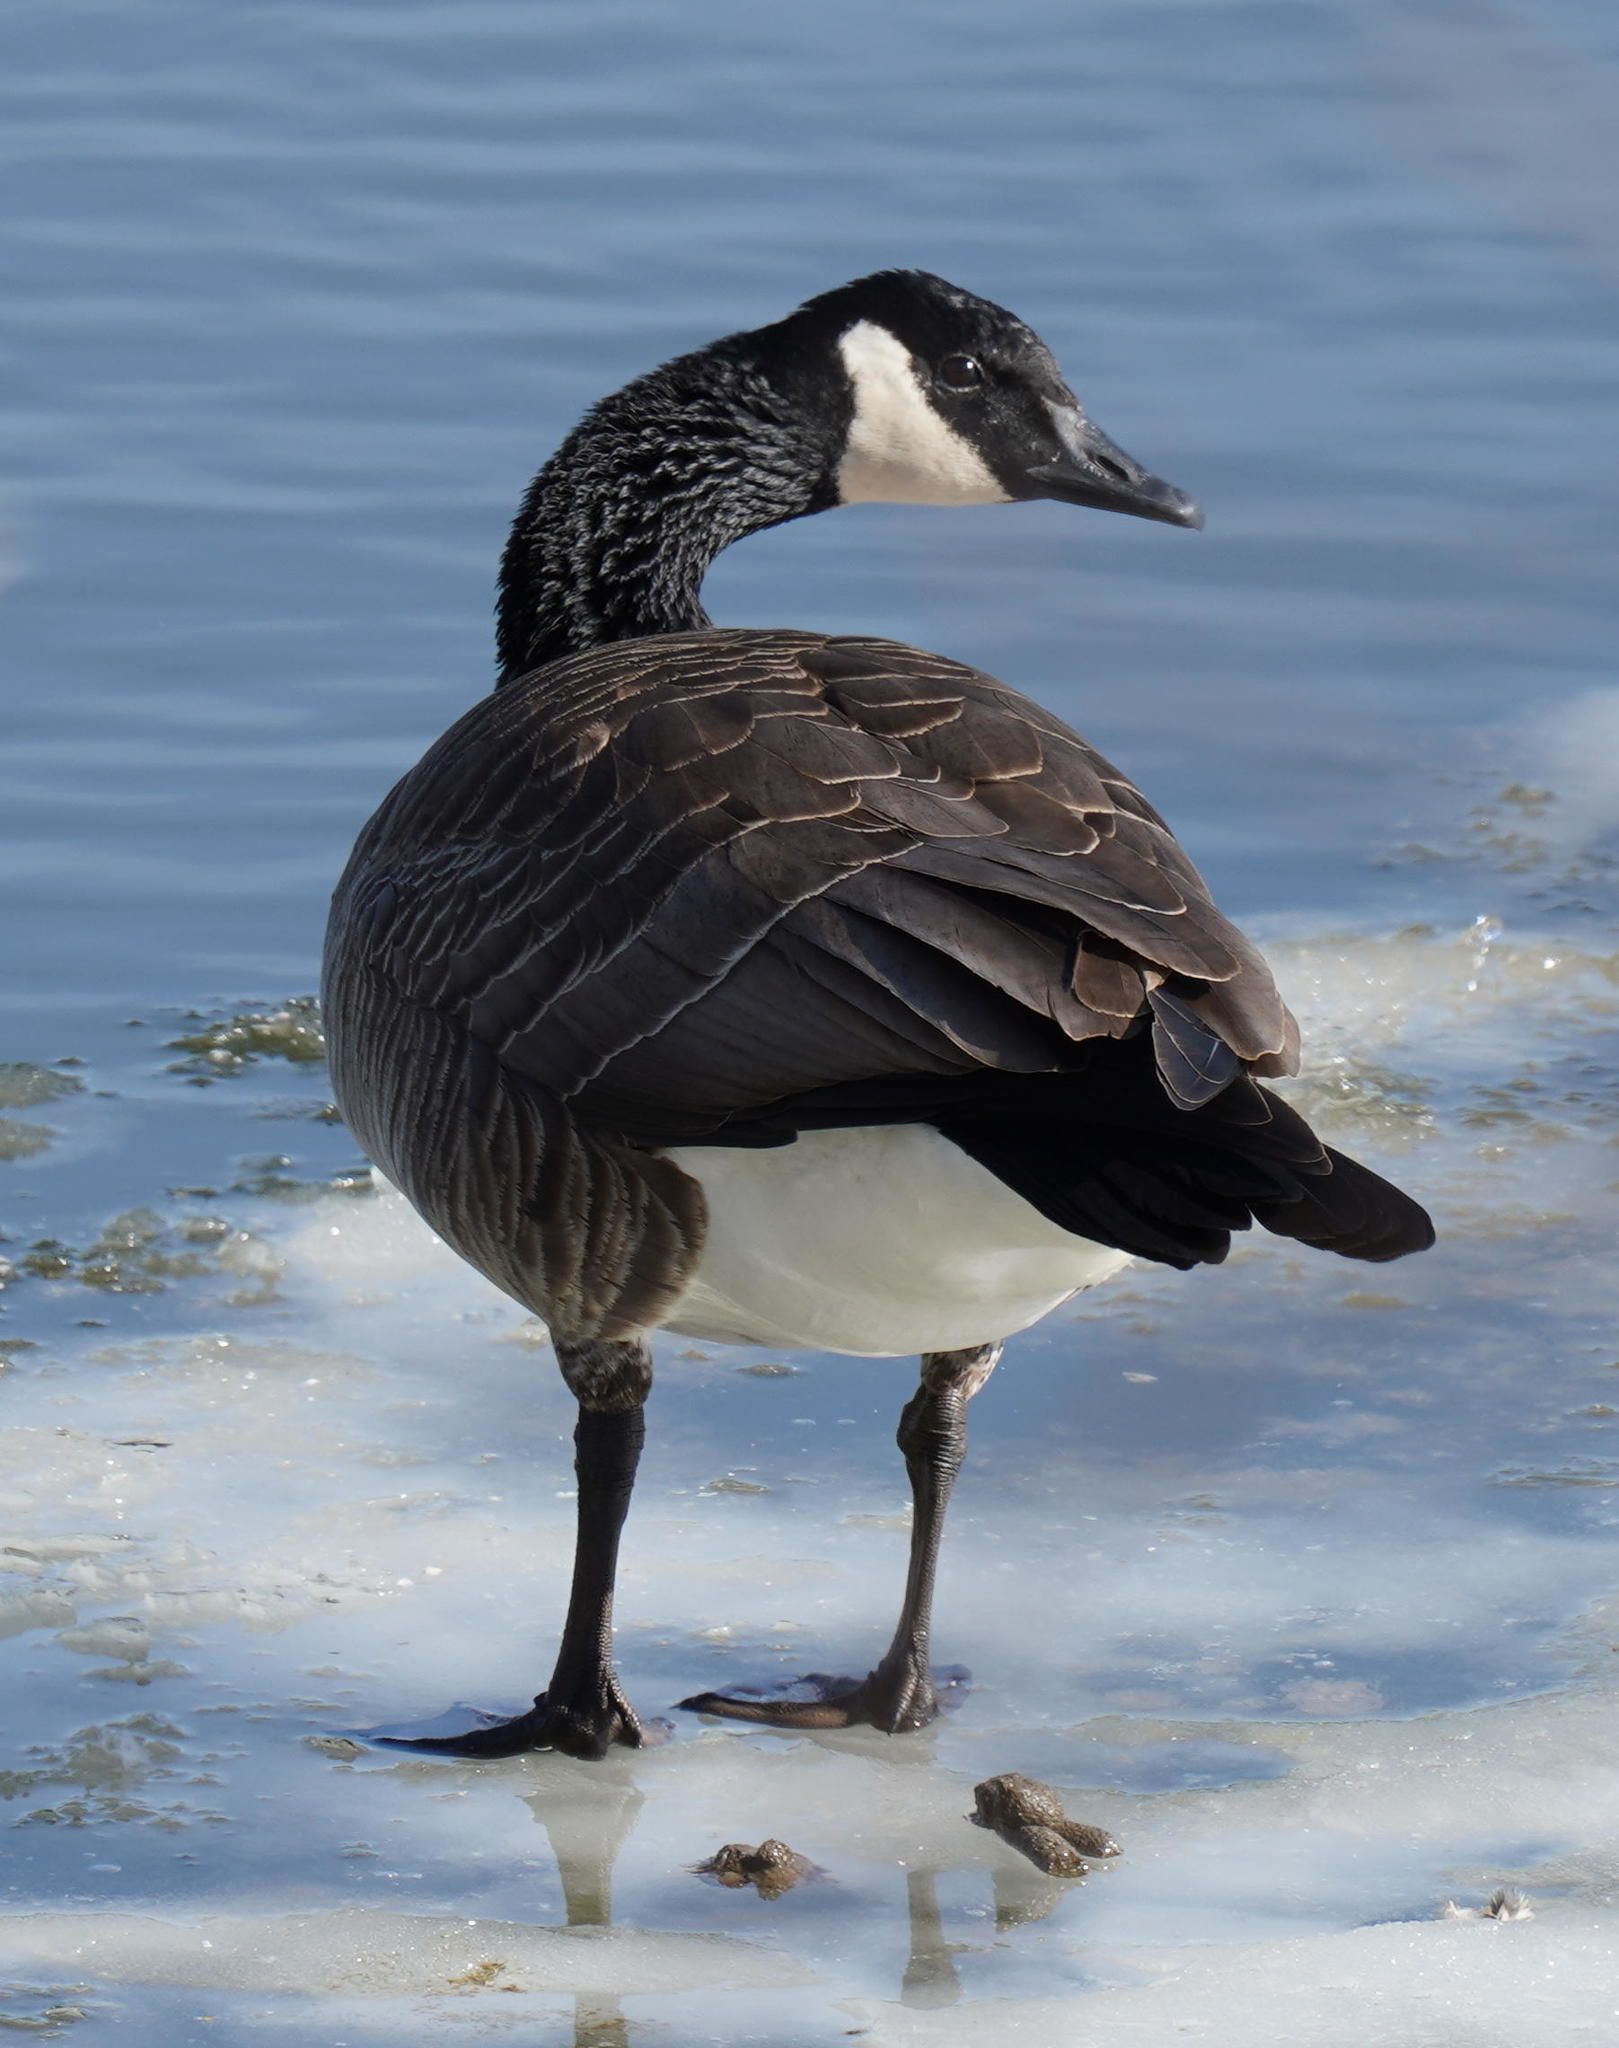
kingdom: Animalia
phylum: Chordata
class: Aves
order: Anseriformes
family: Anatidae
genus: Branta
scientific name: Branta canadensis
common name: Canada goose
